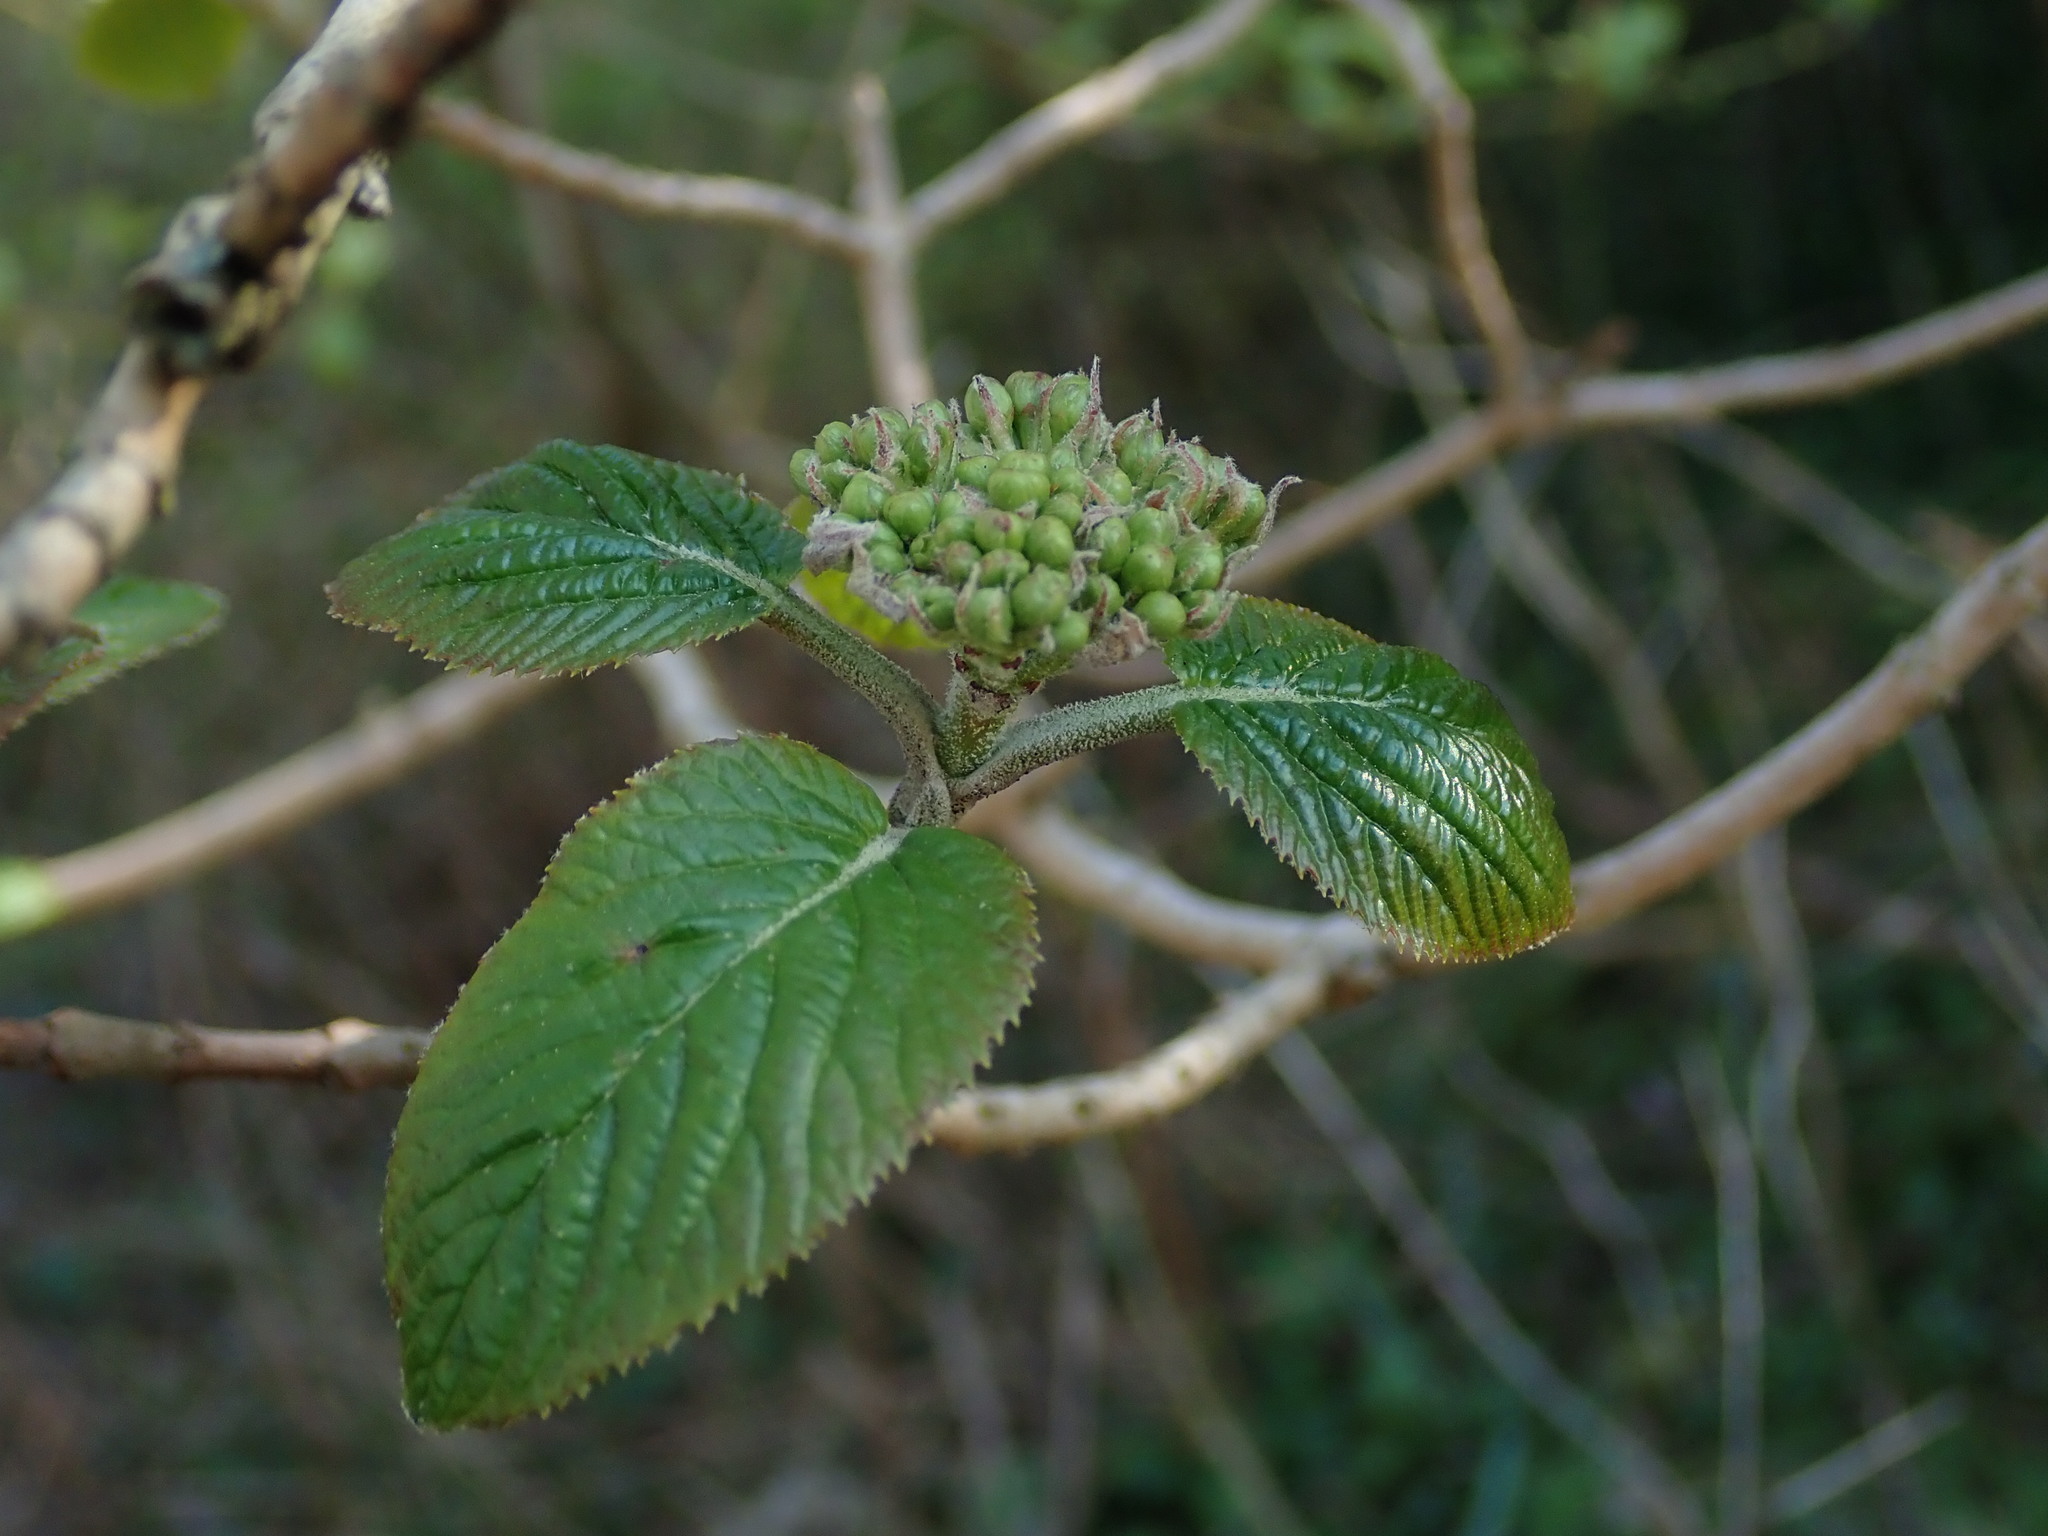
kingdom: Plantae
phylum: Tracheophyta
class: Magnoliopsida
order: Dipsacales
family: Viburnaceae
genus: Viburnum
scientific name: Viburnum lantana
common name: Wayfaring tree
